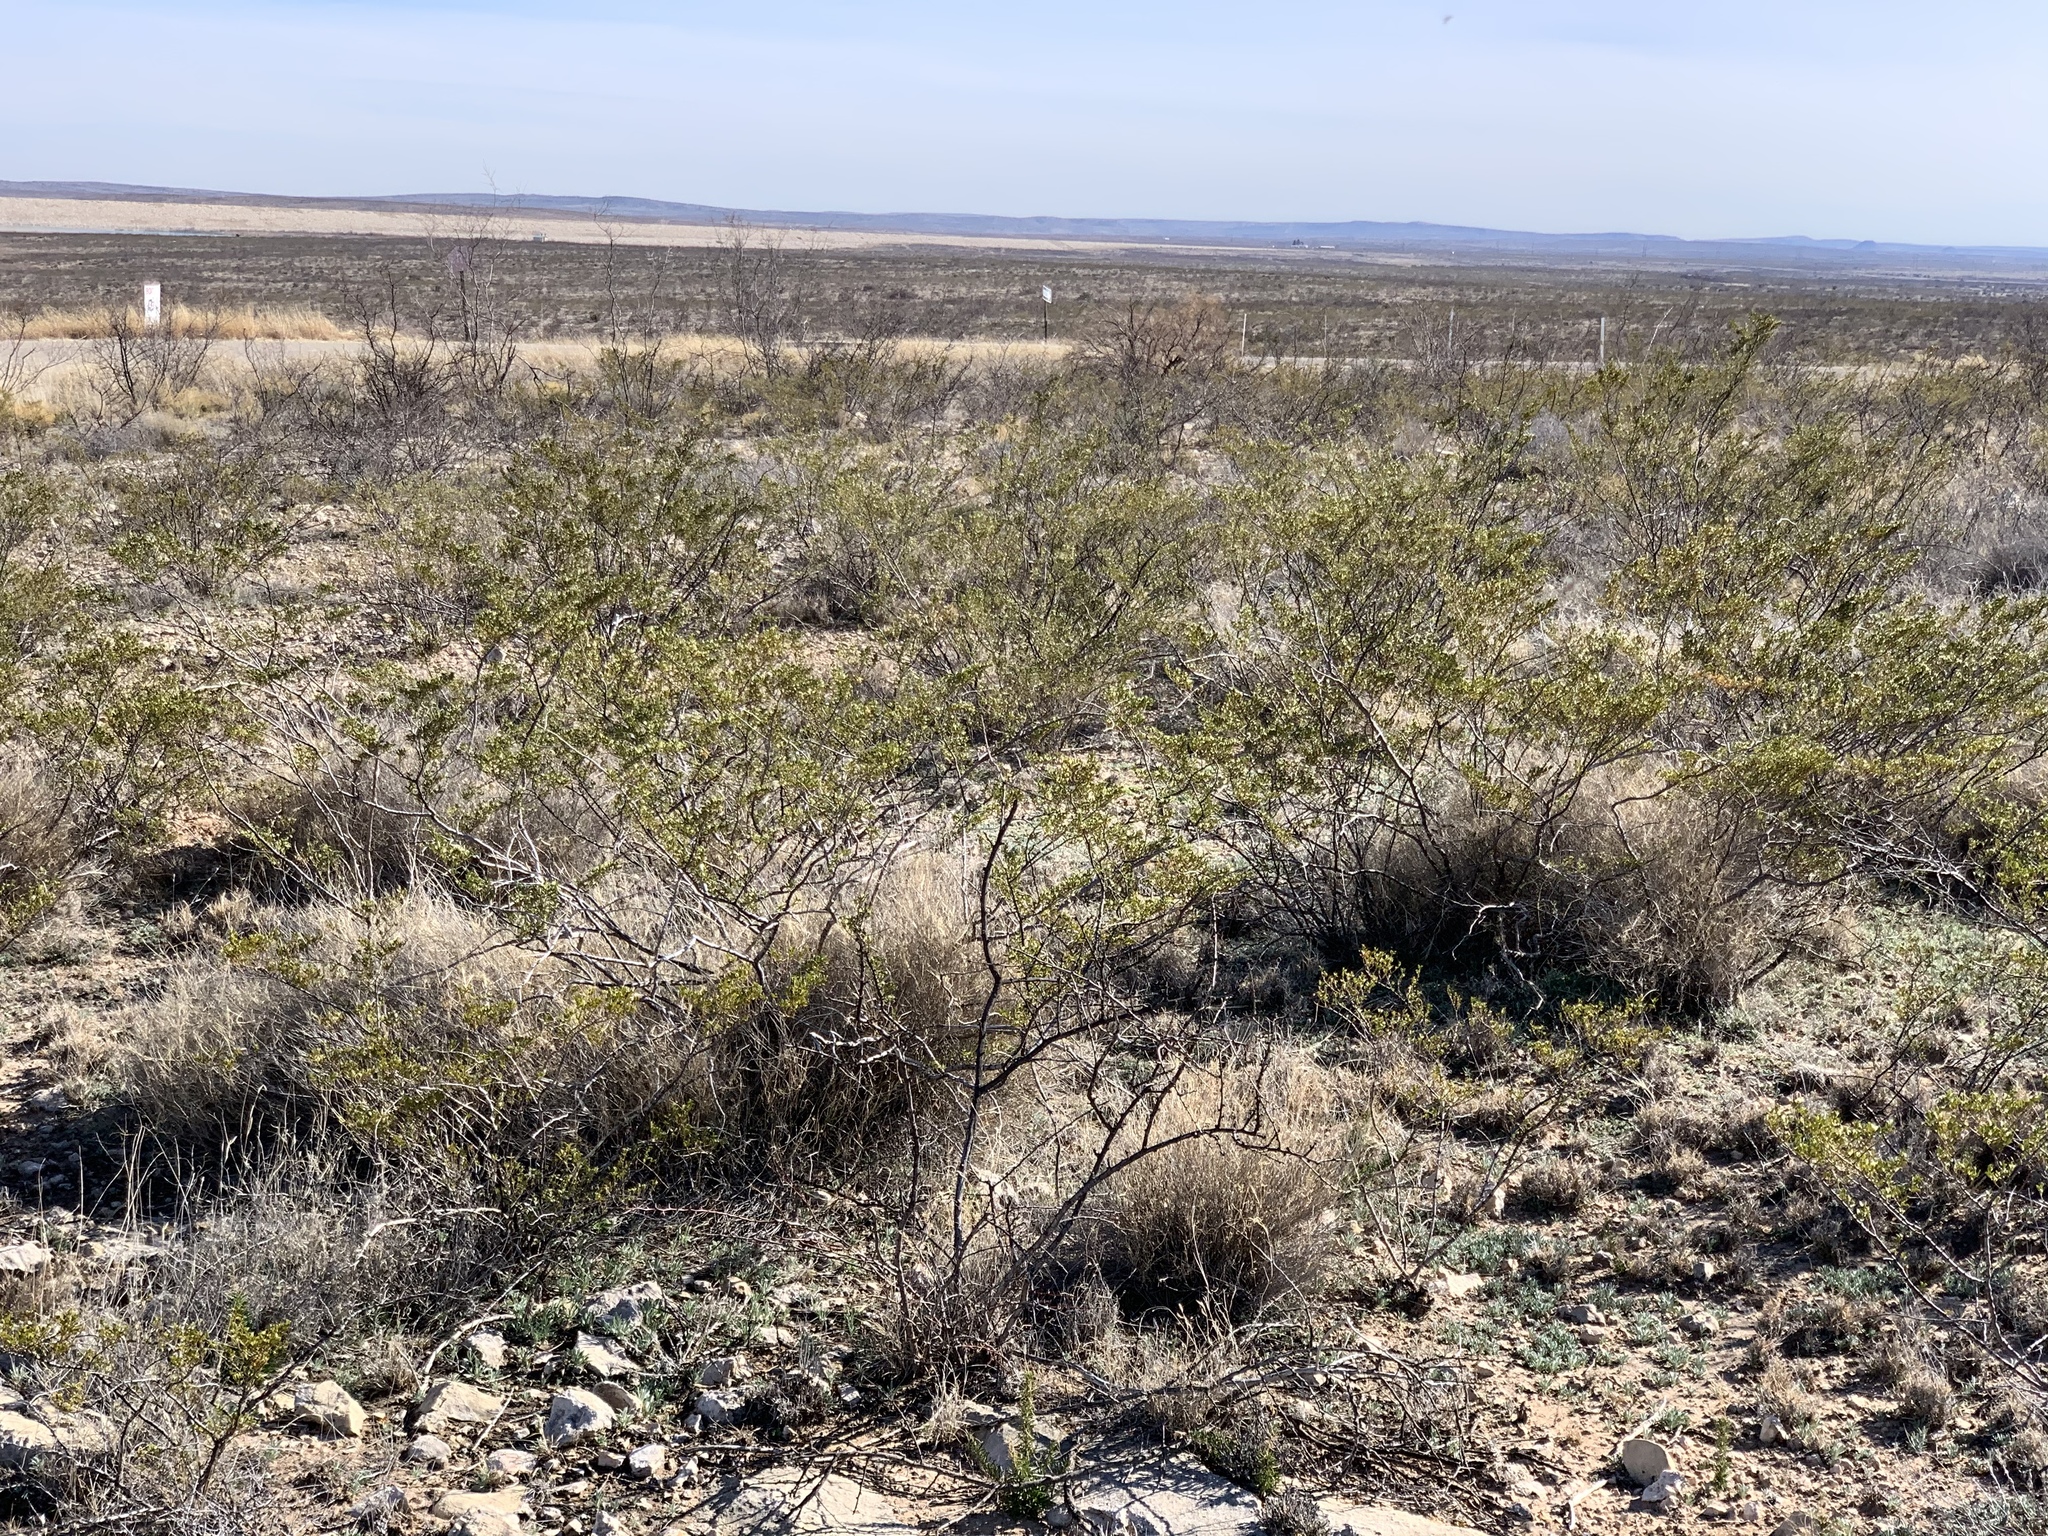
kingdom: Plantae
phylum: Tracheophyta
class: Magnoliopsida
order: Zygophyllales
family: Zygophyllaceae
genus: Larrea
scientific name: Larrea tridentata
